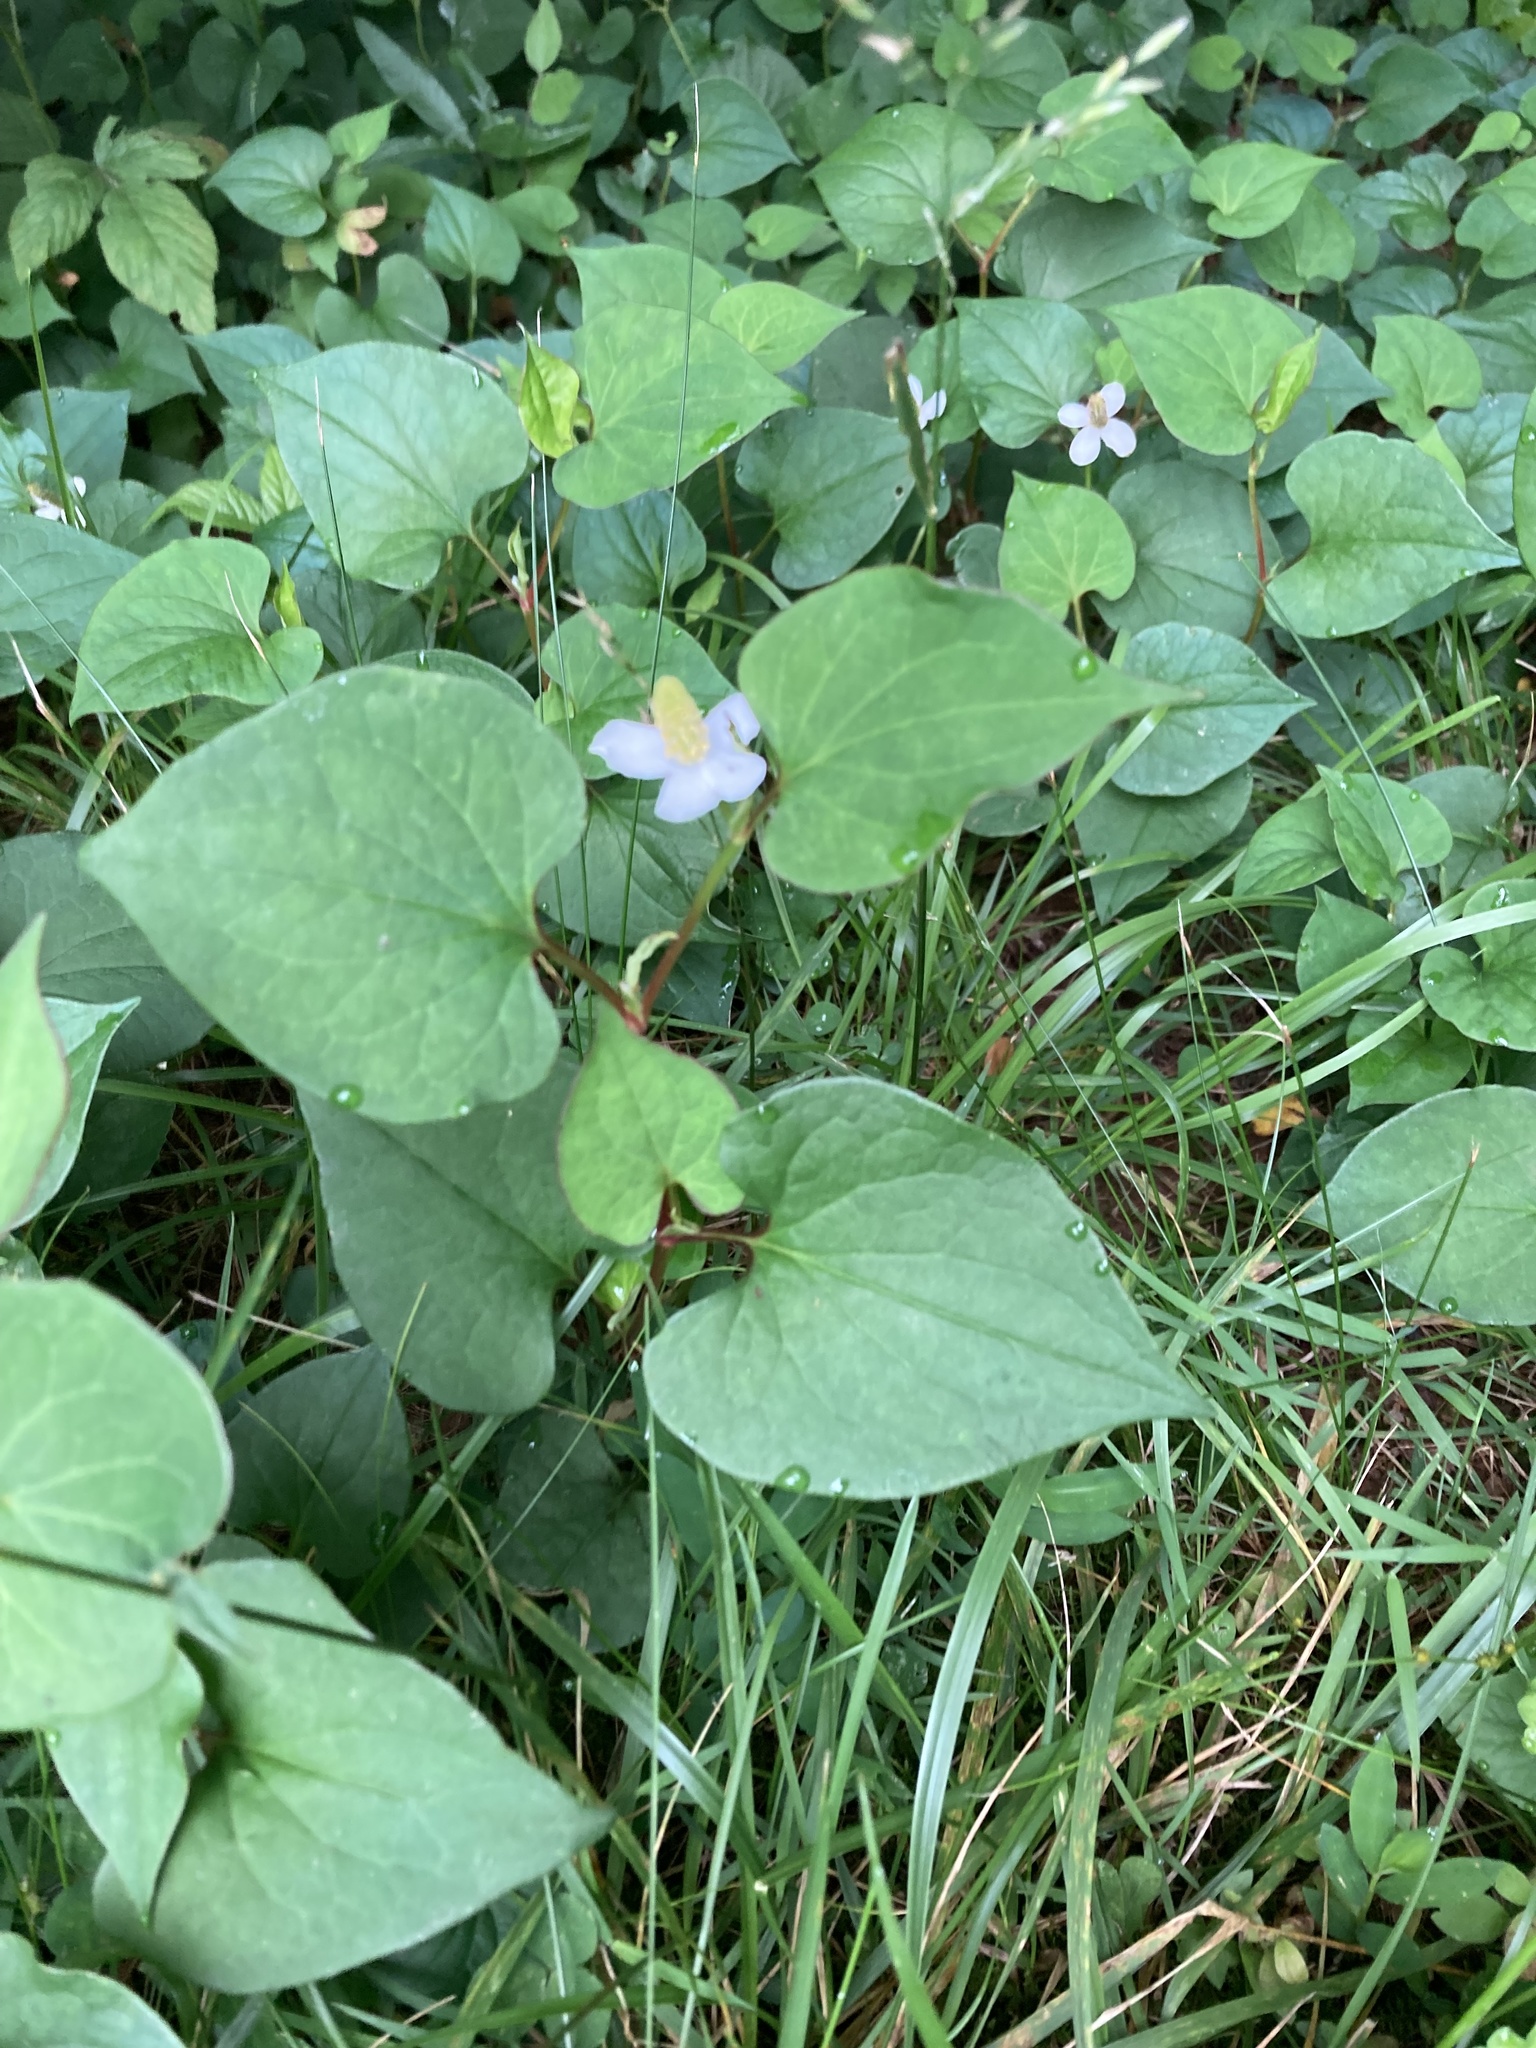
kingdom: Plantae
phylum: Tracheophyta
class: Magnoliopsida
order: Piperales
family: Saururaceae
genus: Houttuynia
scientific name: Houttuynia cordata
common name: Chameleon
